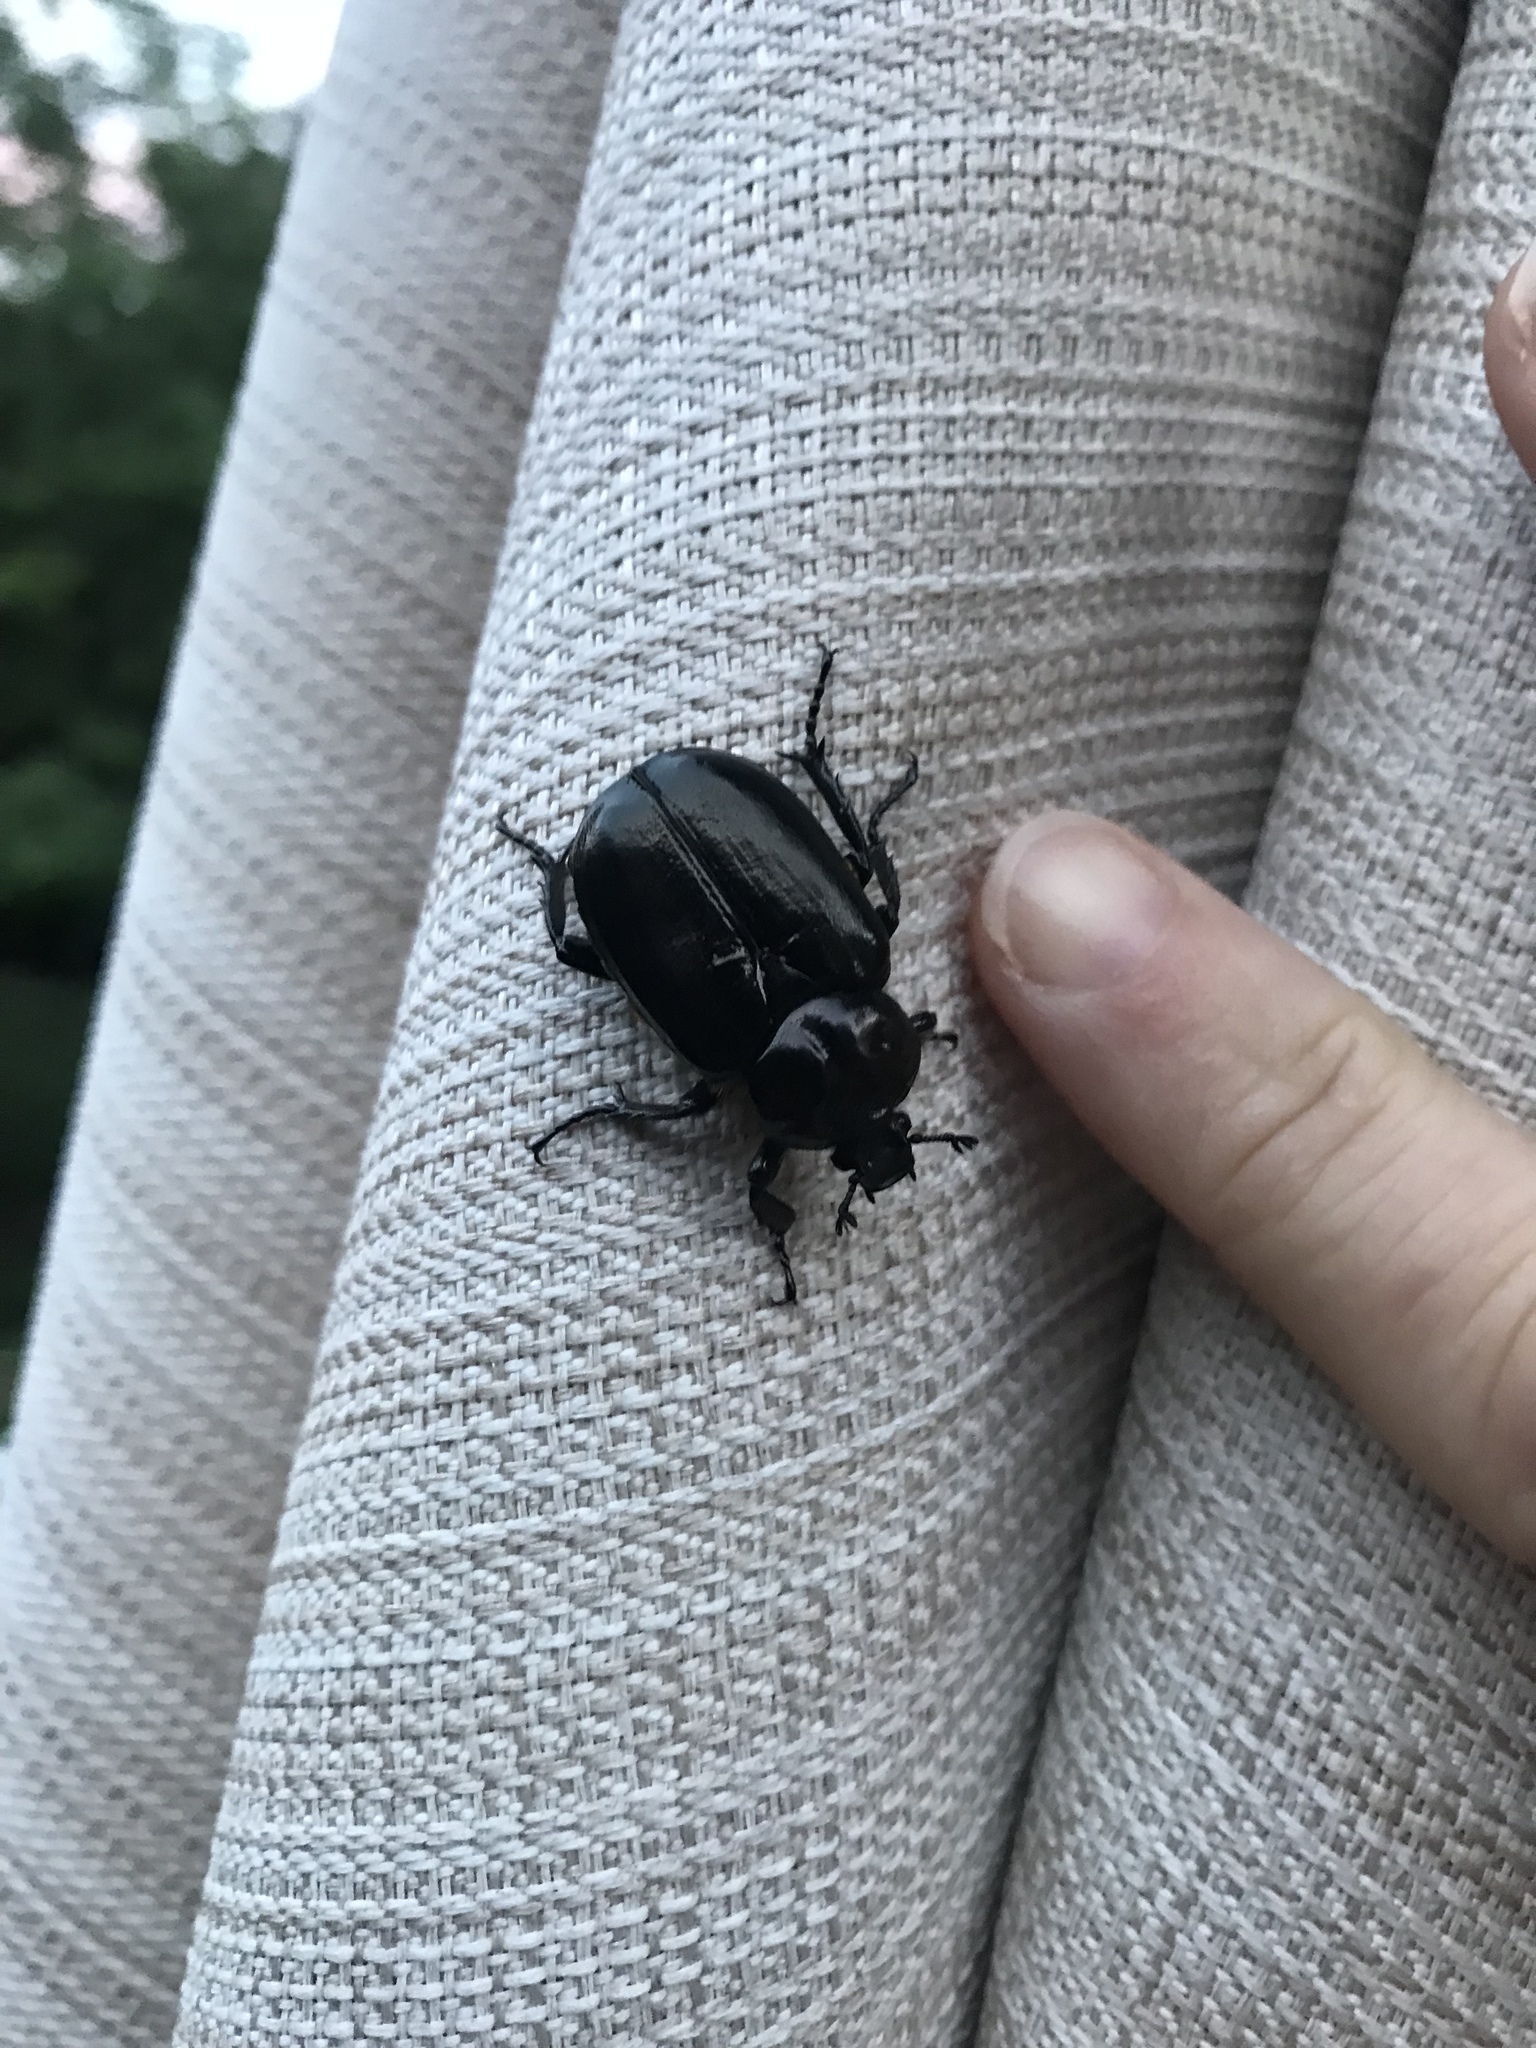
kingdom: Animalia
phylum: Arthropoda
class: Insecta
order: Coleoptera
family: Scarabaeidae
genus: Osmoderma
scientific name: Osmoderma eremicola
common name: Hermit flower beetle
